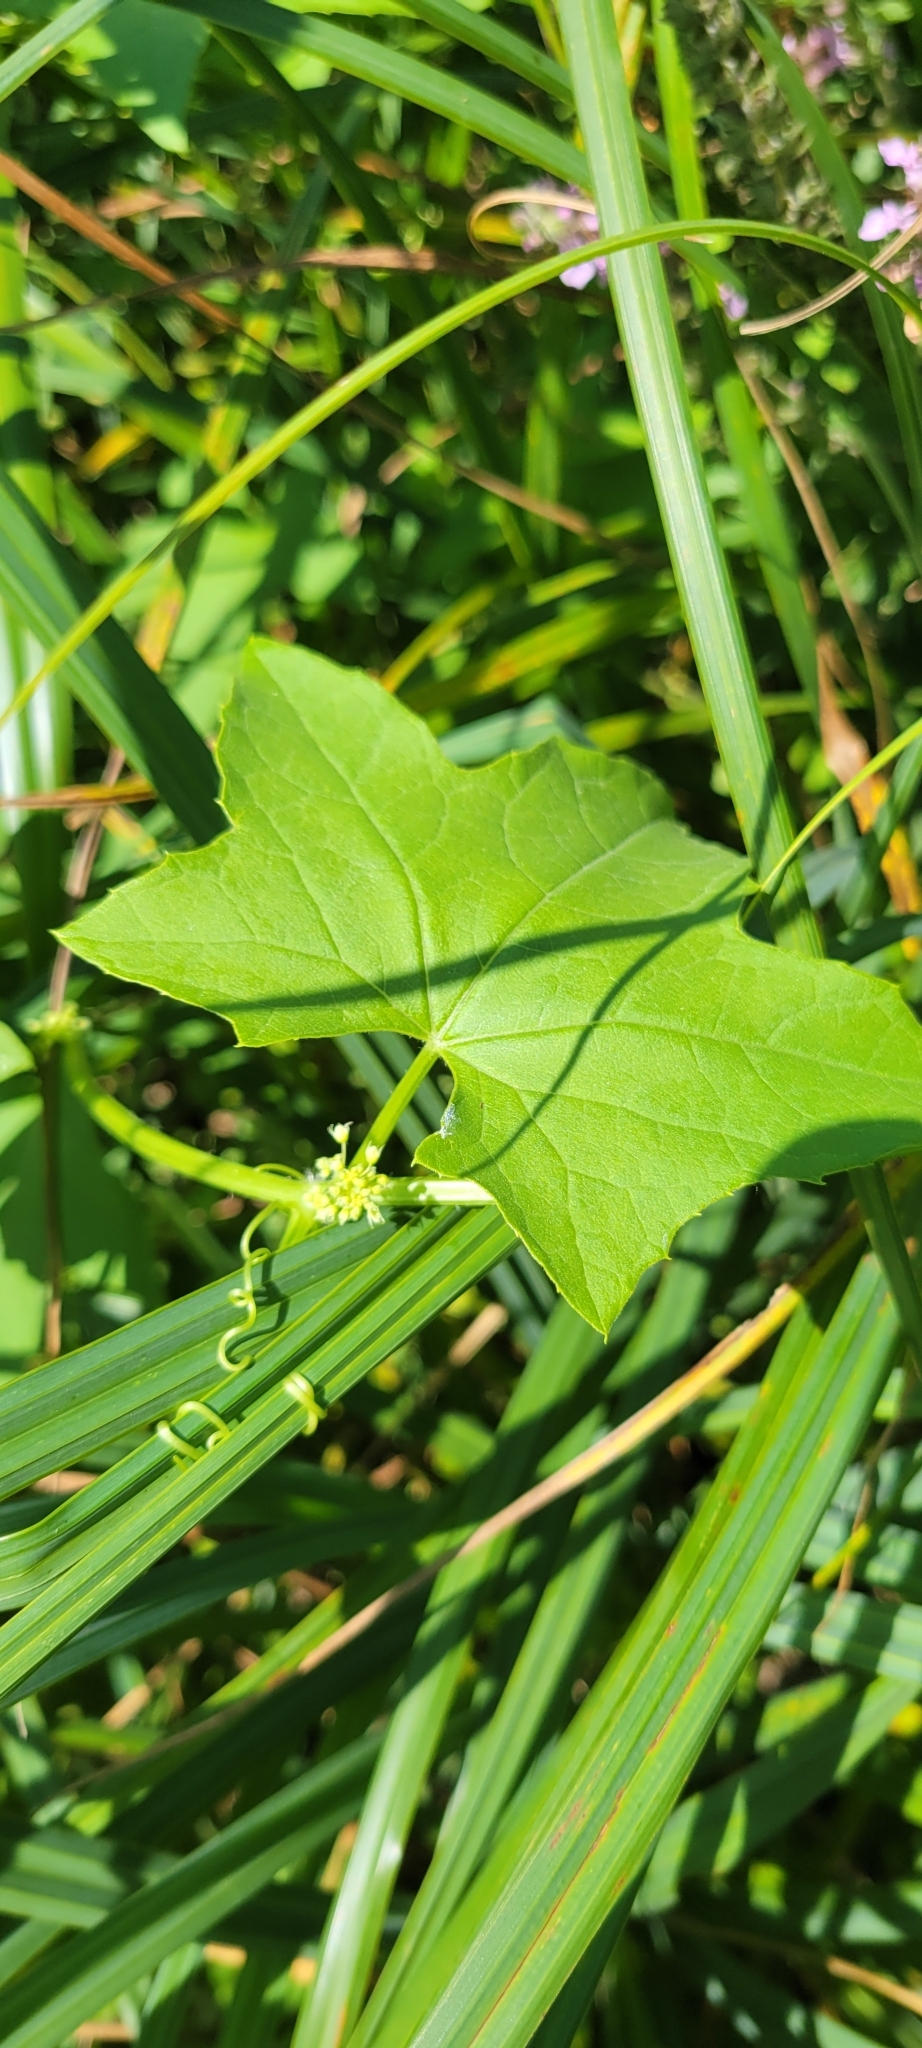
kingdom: Plantae
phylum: Tracheophyta
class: Magnoliopsida
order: Cucurbitales
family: Cucurbitaceae
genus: Echinocystis
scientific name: Echinocystis lobata
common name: Wild cucumber
